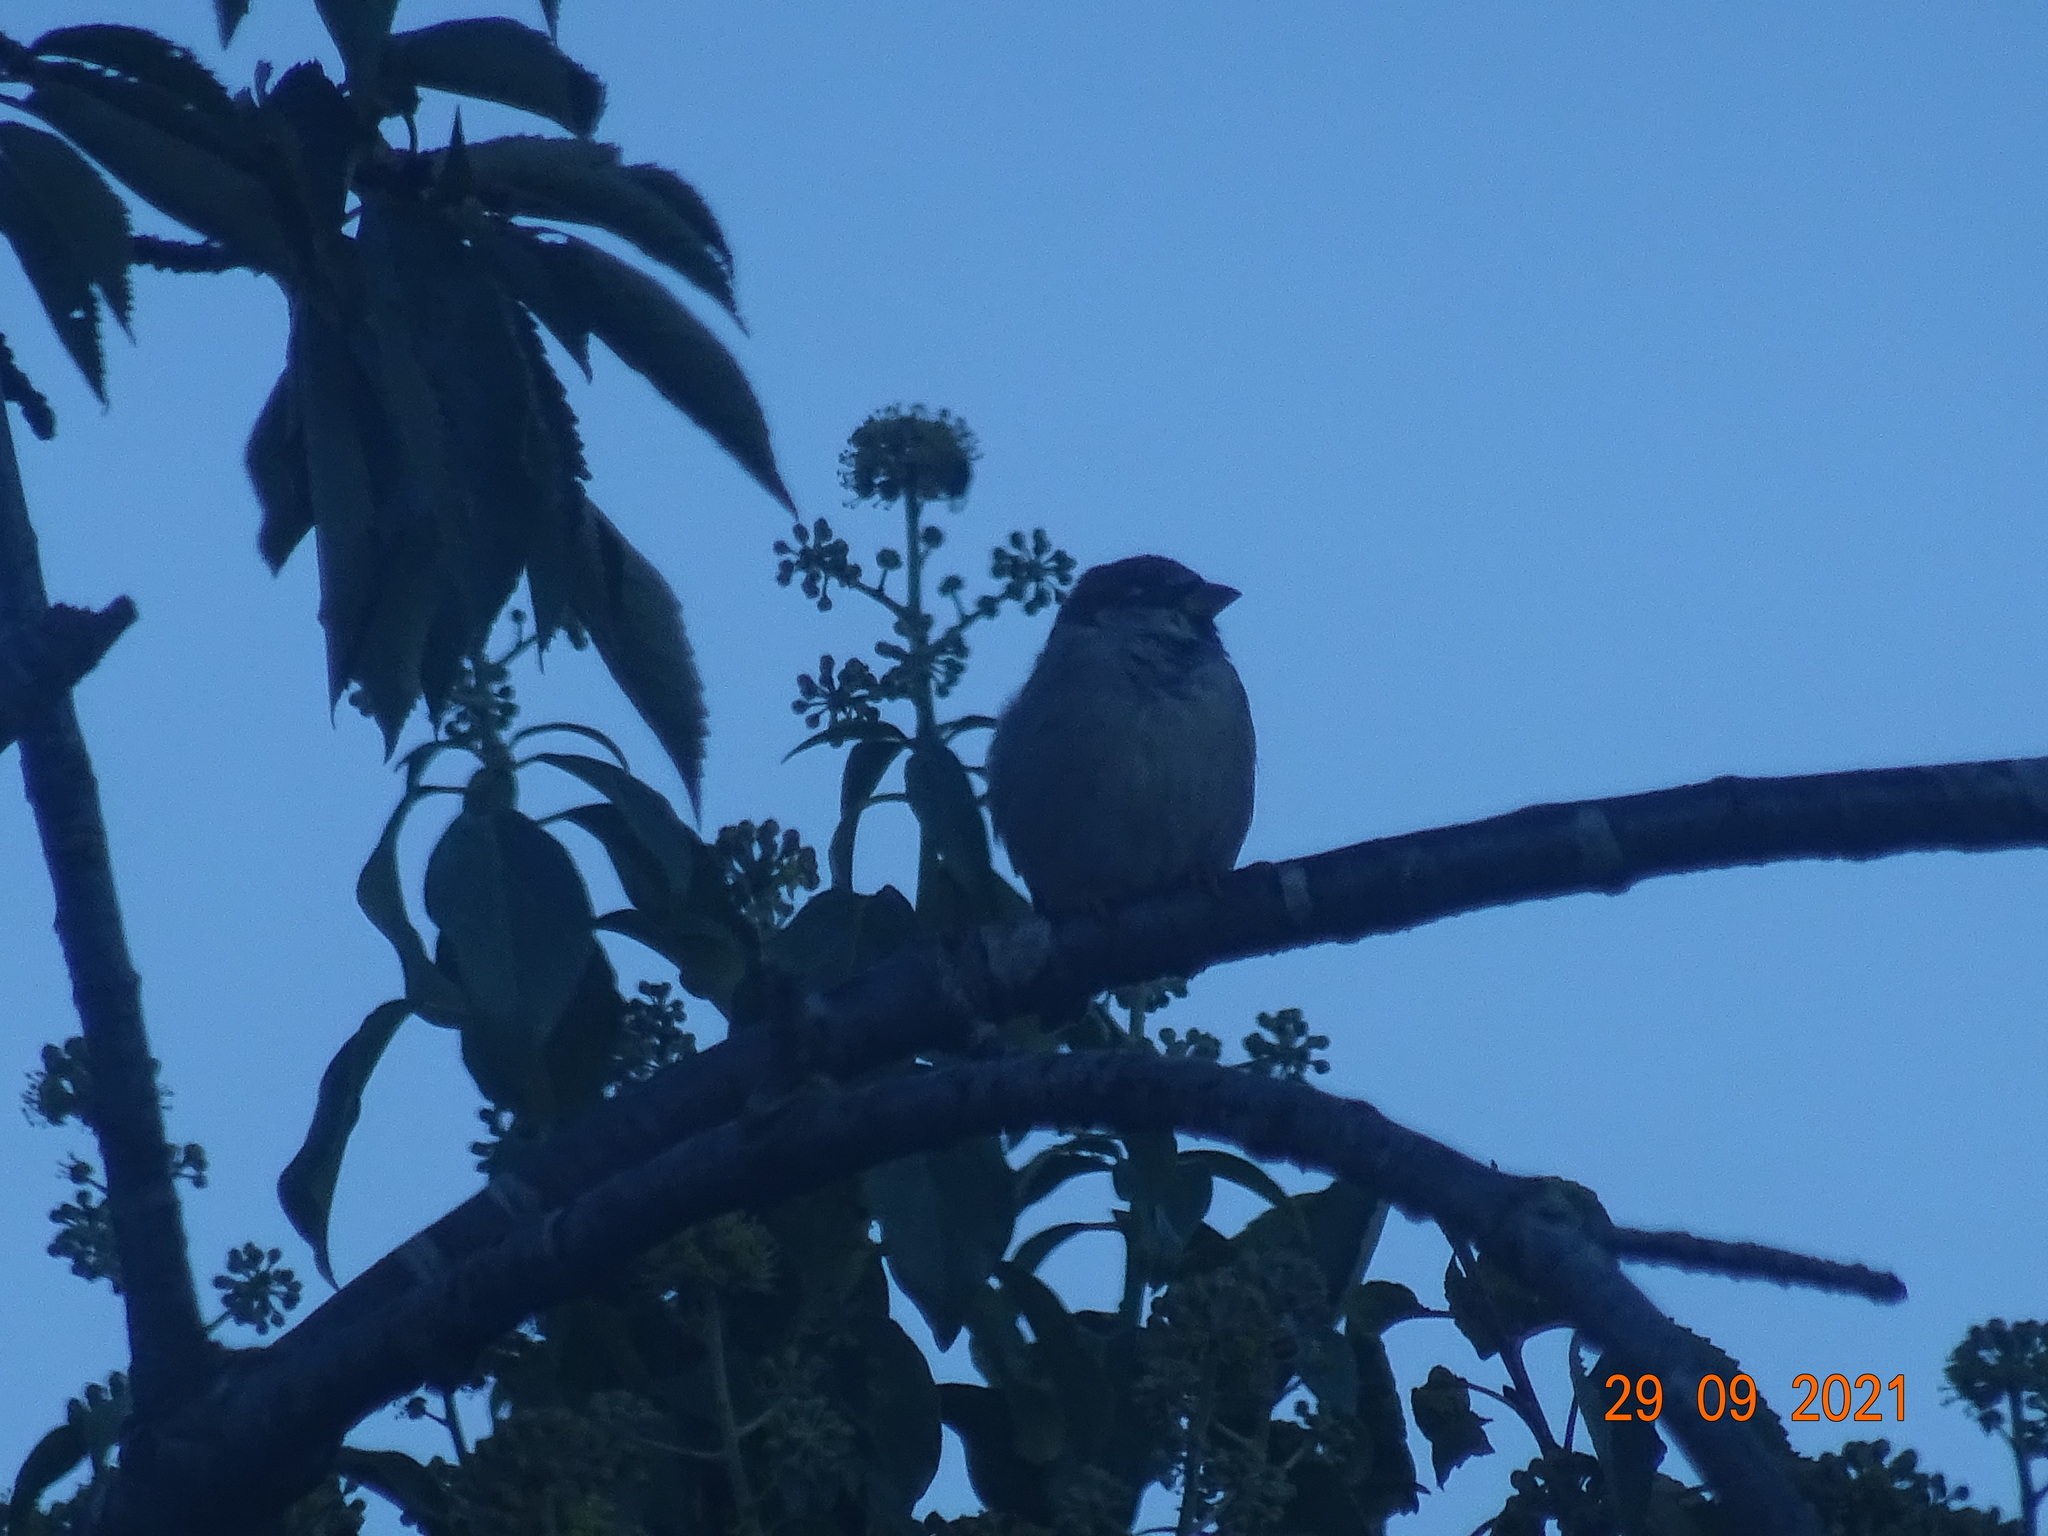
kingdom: Animalia
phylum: Chordata
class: Aves
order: Passeriformes
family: Passeridae
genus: Passer
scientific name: Passer domesticus
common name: House sparrow
